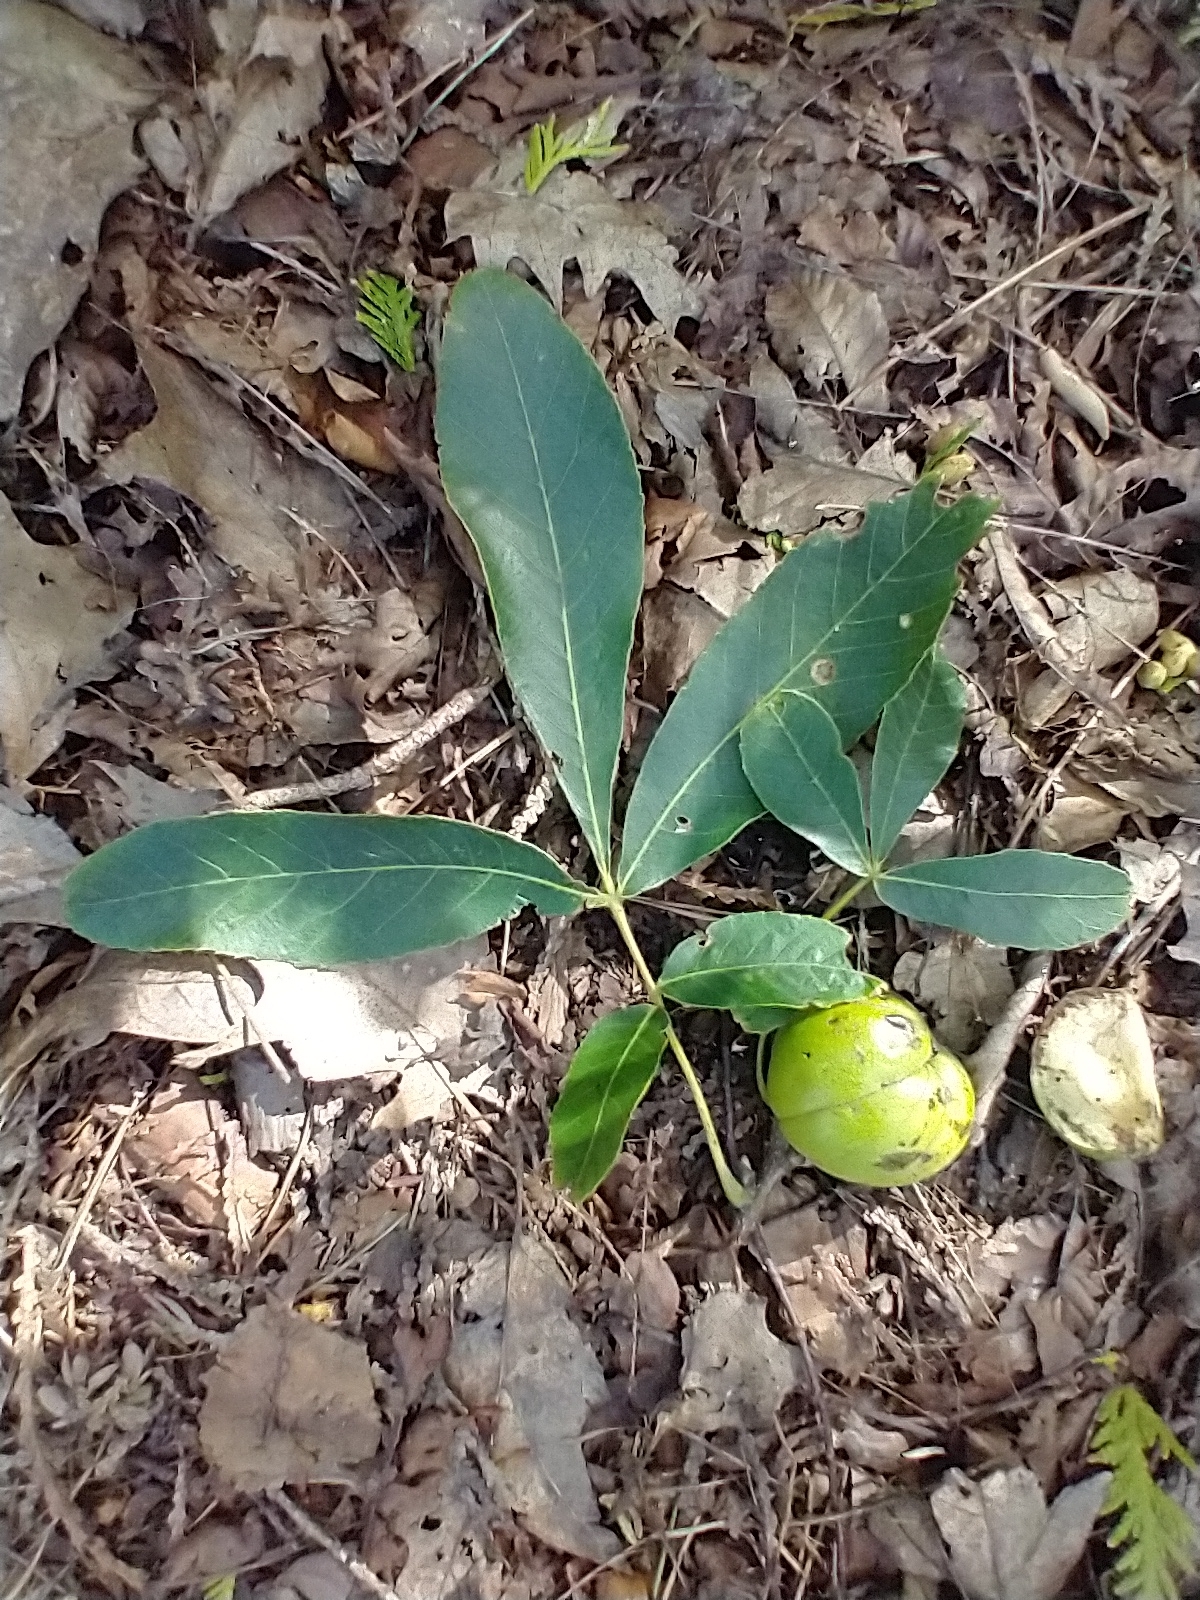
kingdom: Plantae
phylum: Tracheophyta
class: Magnoliopsida
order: Fagales
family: Juglandaceae
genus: Carya
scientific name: Carya ovata
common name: Shagbark hickory
